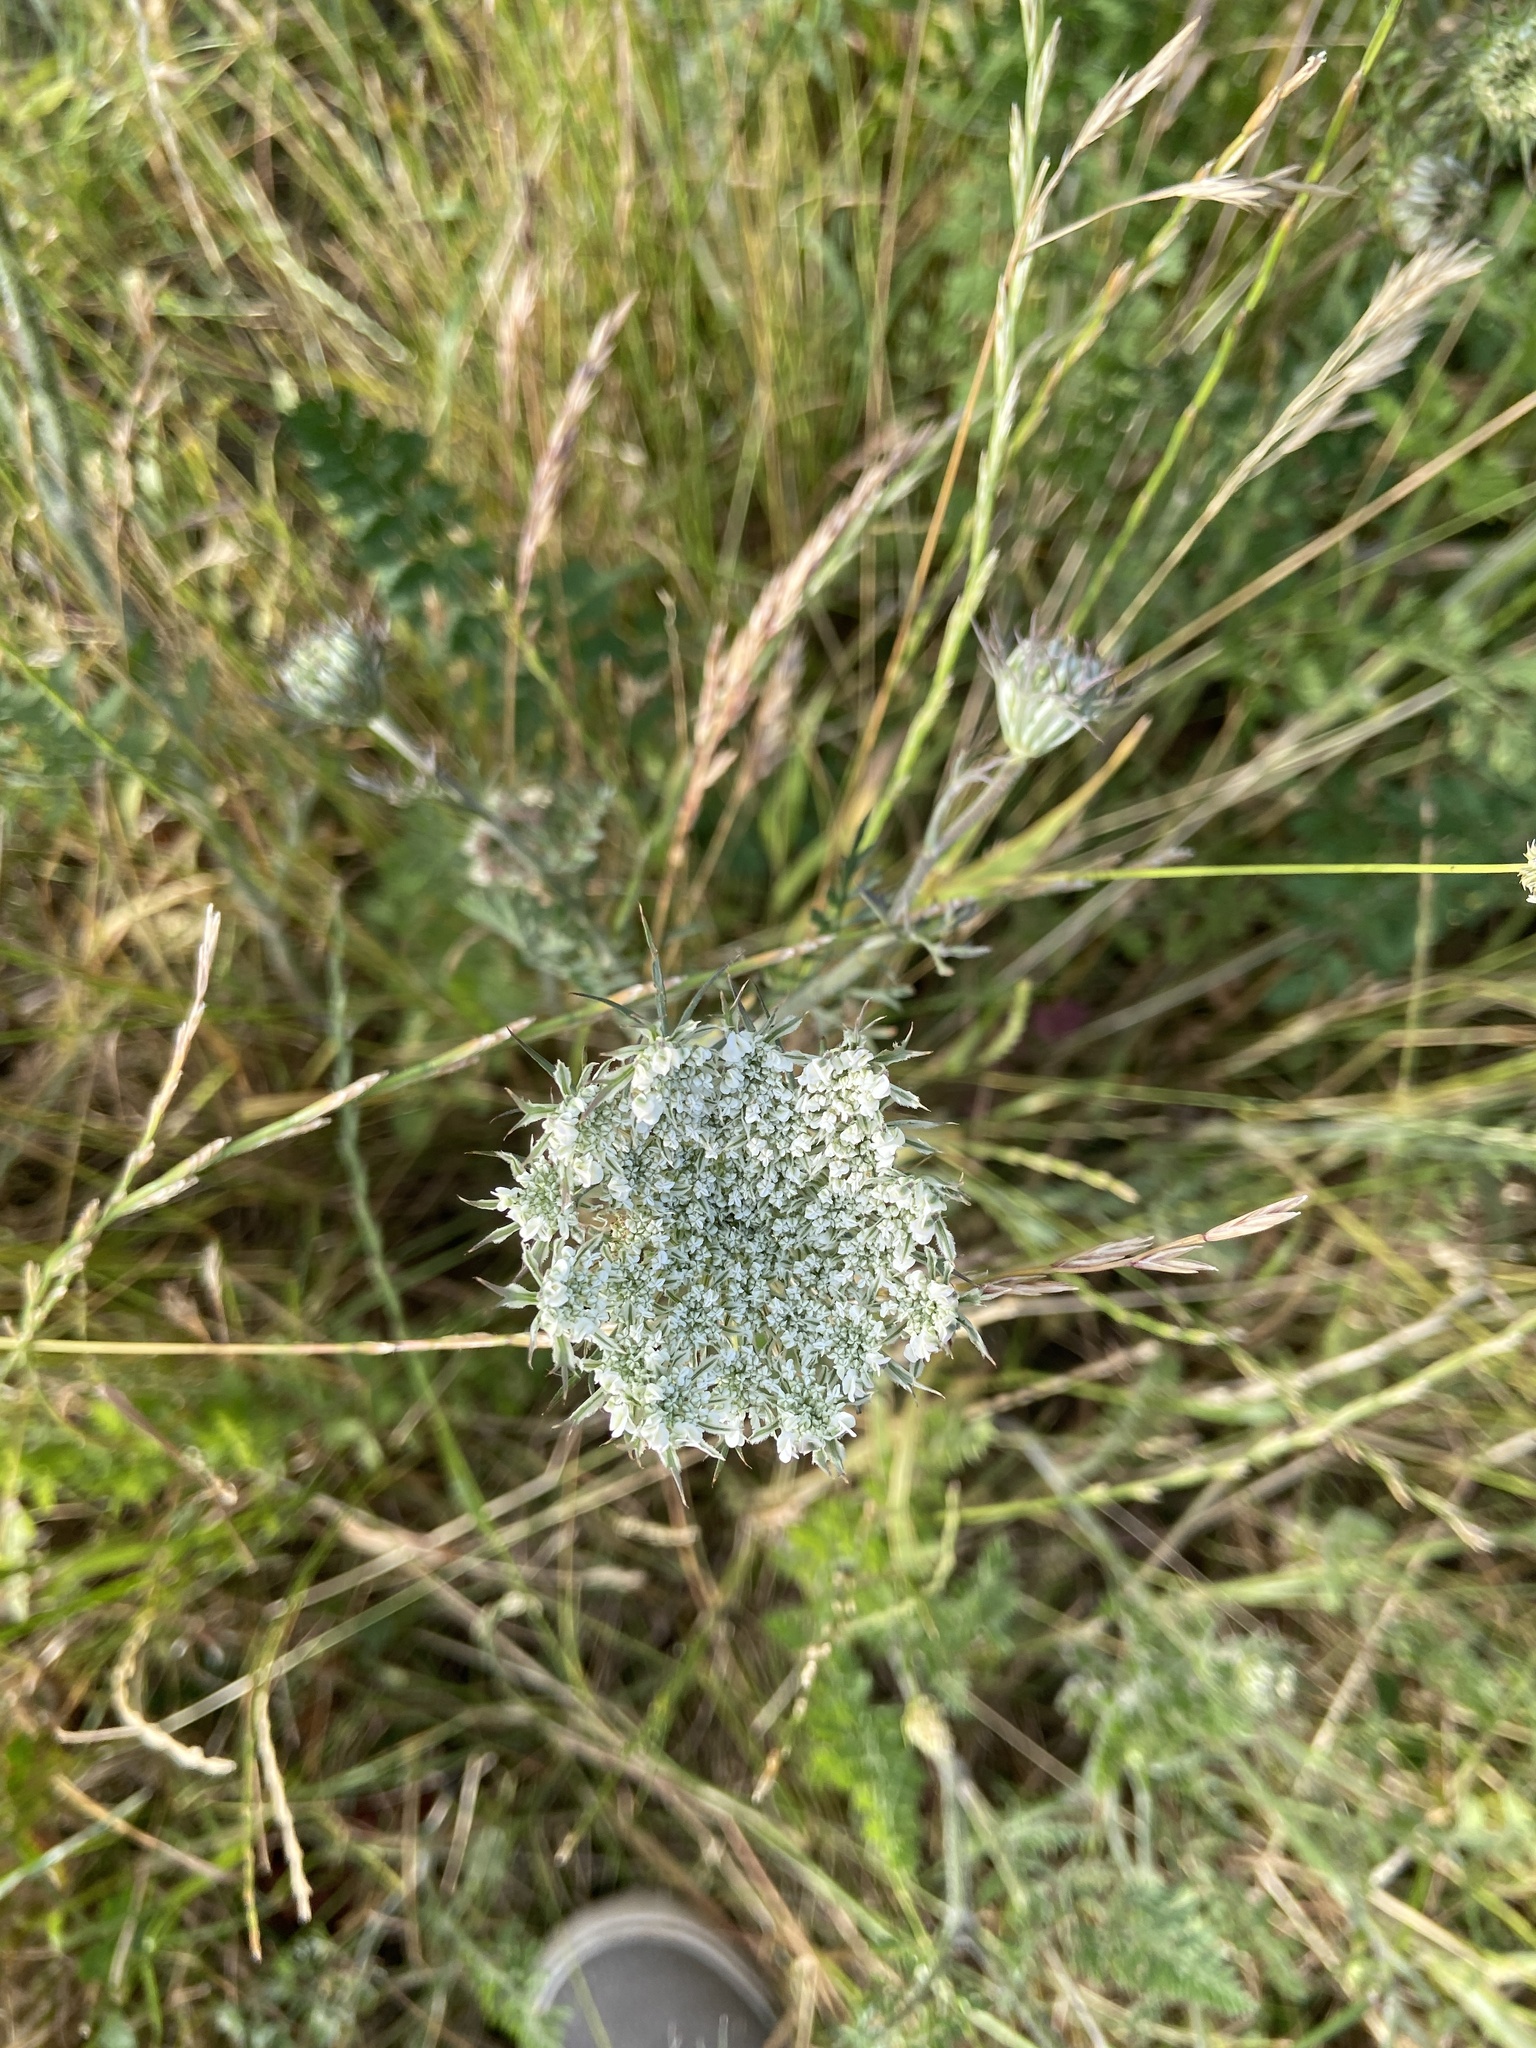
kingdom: Plantae
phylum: Tracheophyta
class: Magnoliopsida
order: Apiales
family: Apiaceae
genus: Daucus
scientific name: Daucus carota
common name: Wild carrot
